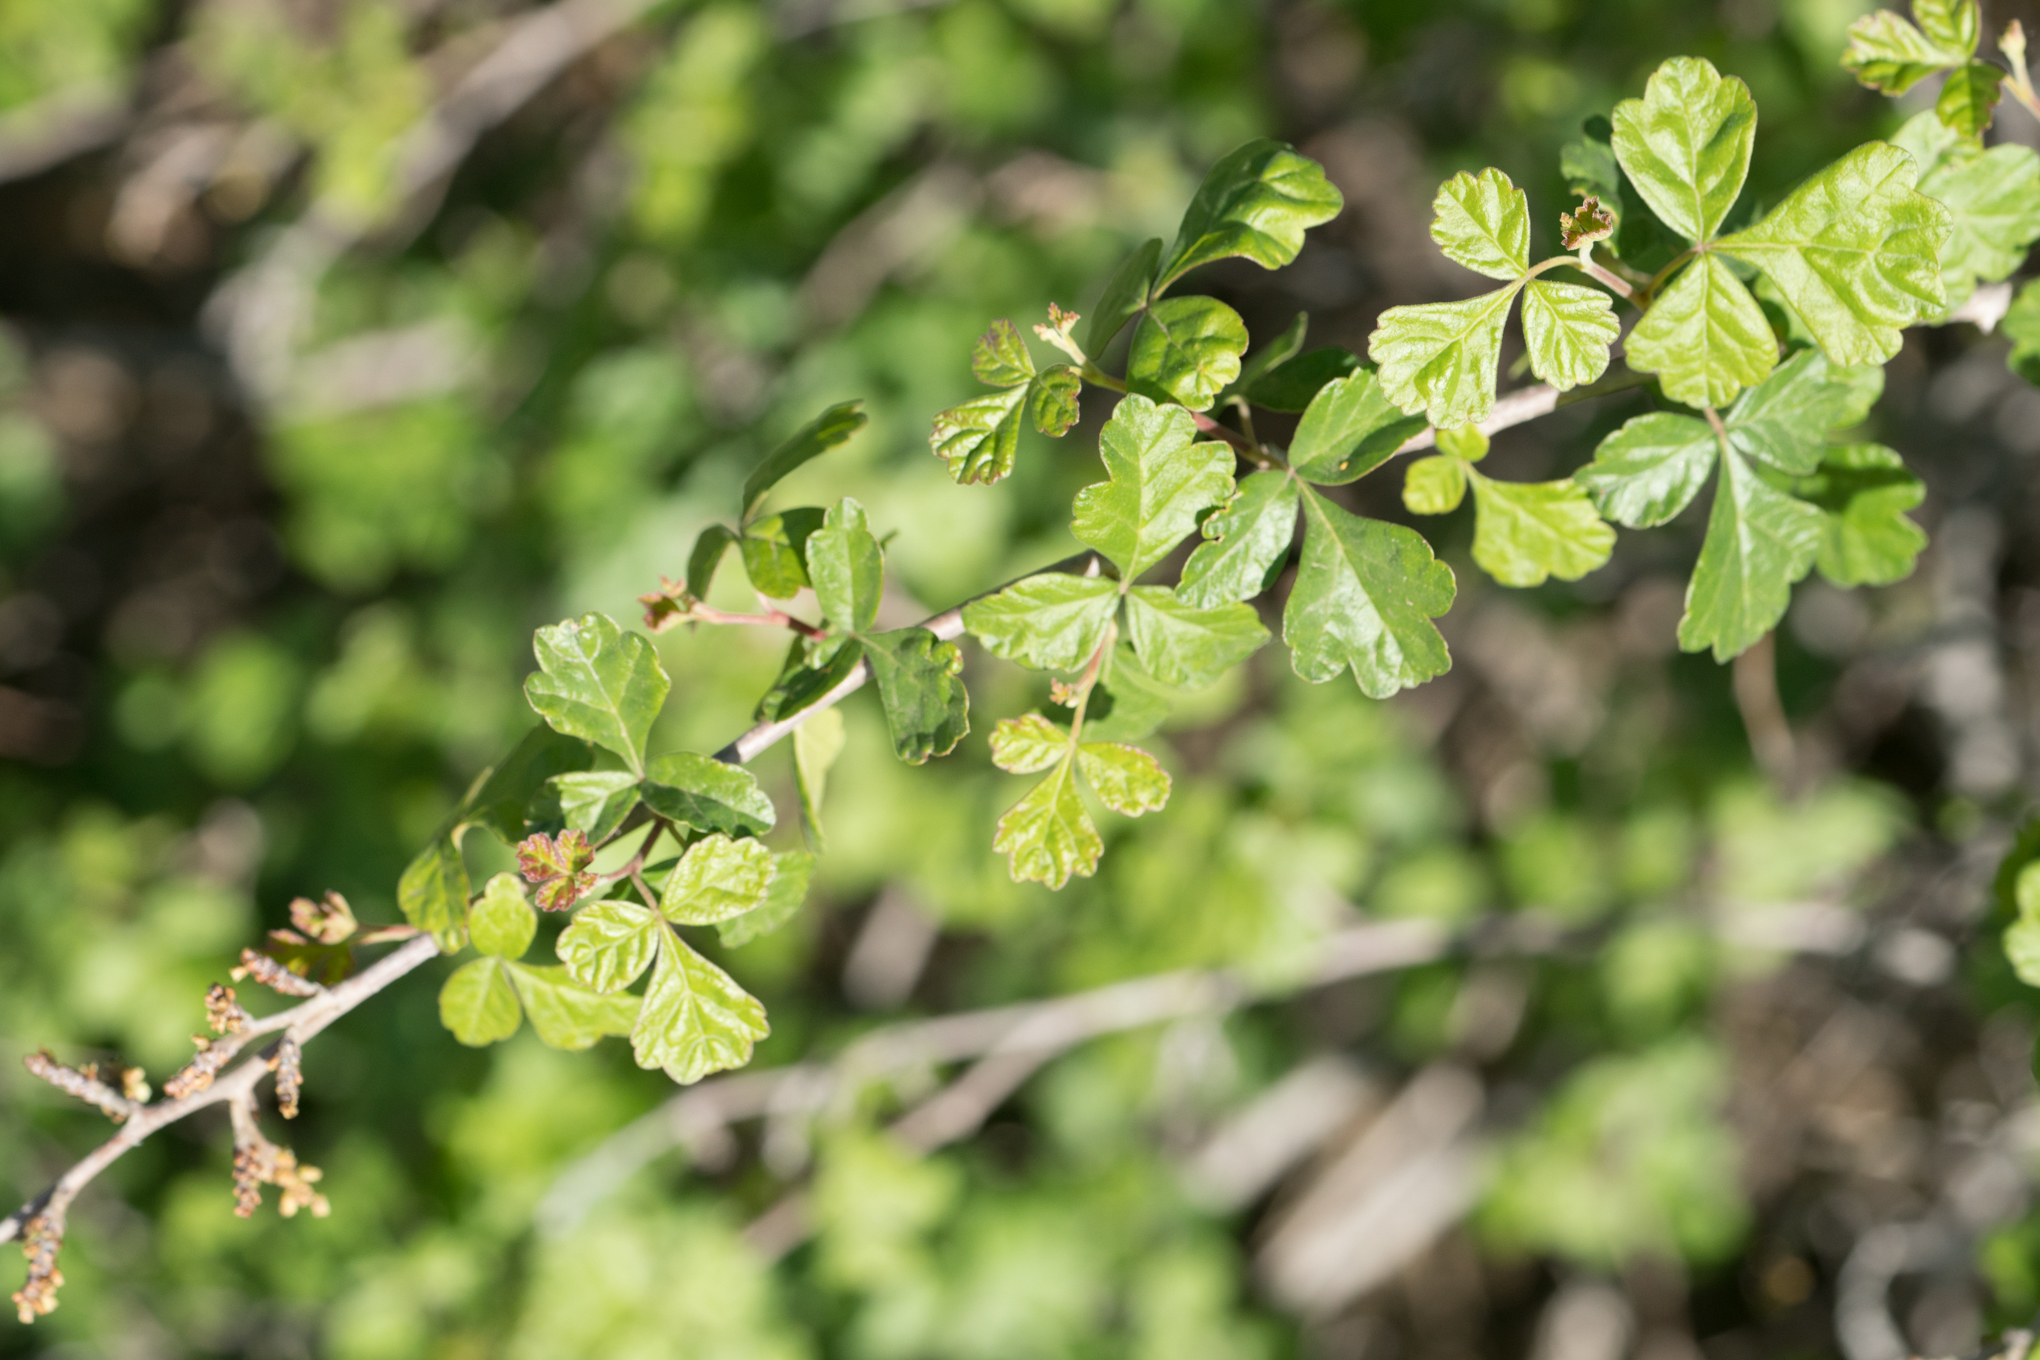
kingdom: Plantae
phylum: Tracheophyta
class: Magnoliopsida
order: Sapindales
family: Anacardiaceae
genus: Rhus
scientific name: Rhus aromatica
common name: Aromatic sumac
